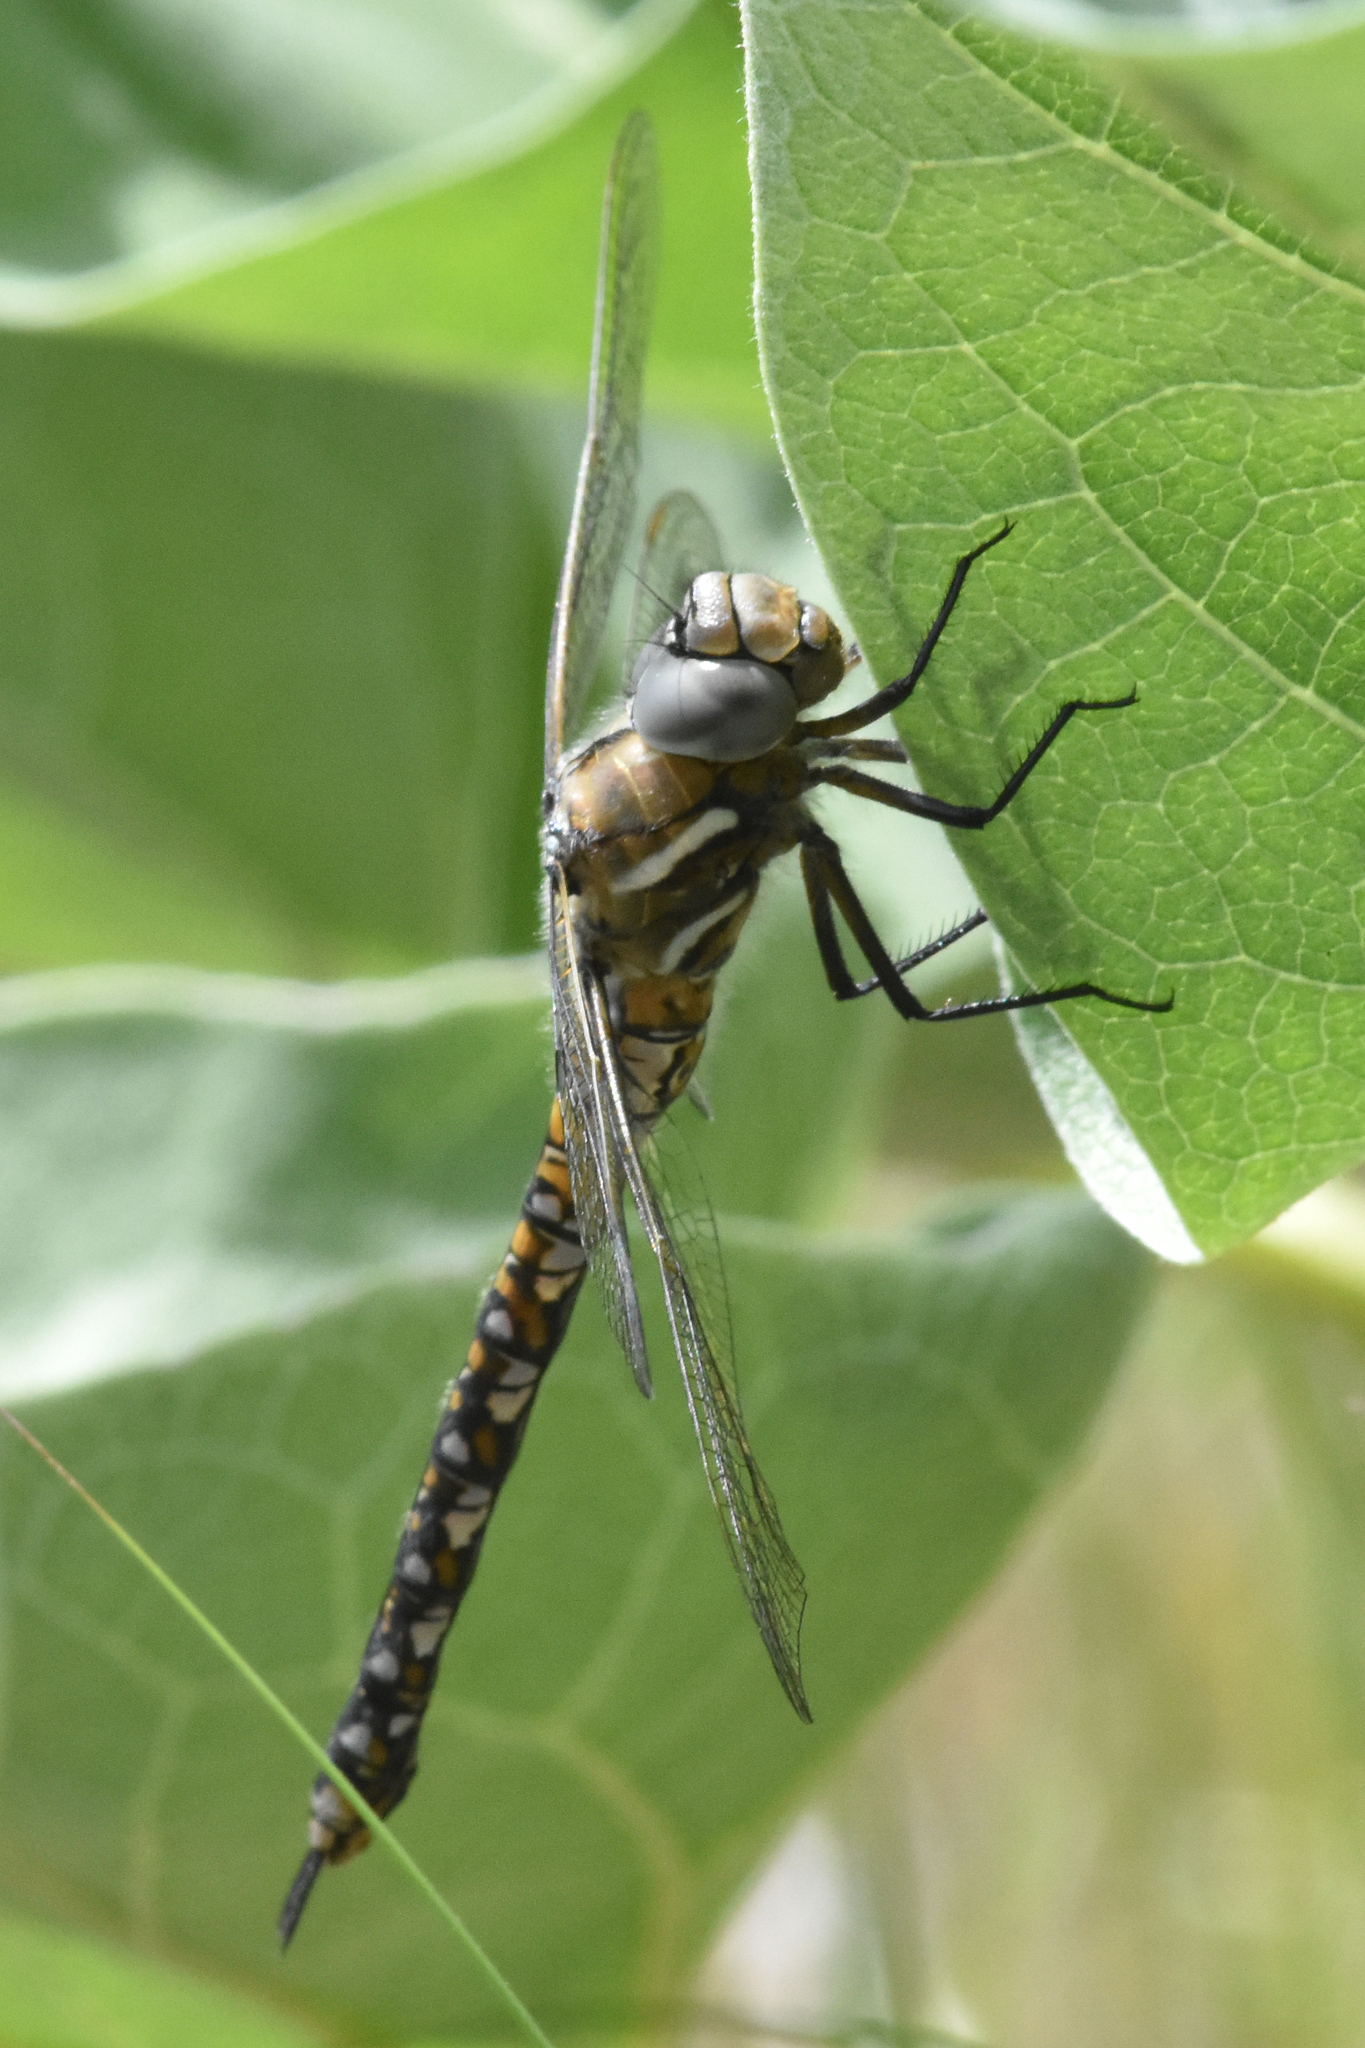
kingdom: Animalia
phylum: Arthropoda
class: Insecta
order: Odonata
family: Aeshnidae
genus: Rhionaeschna
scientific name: Rhionaeschna californica
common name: California darner
